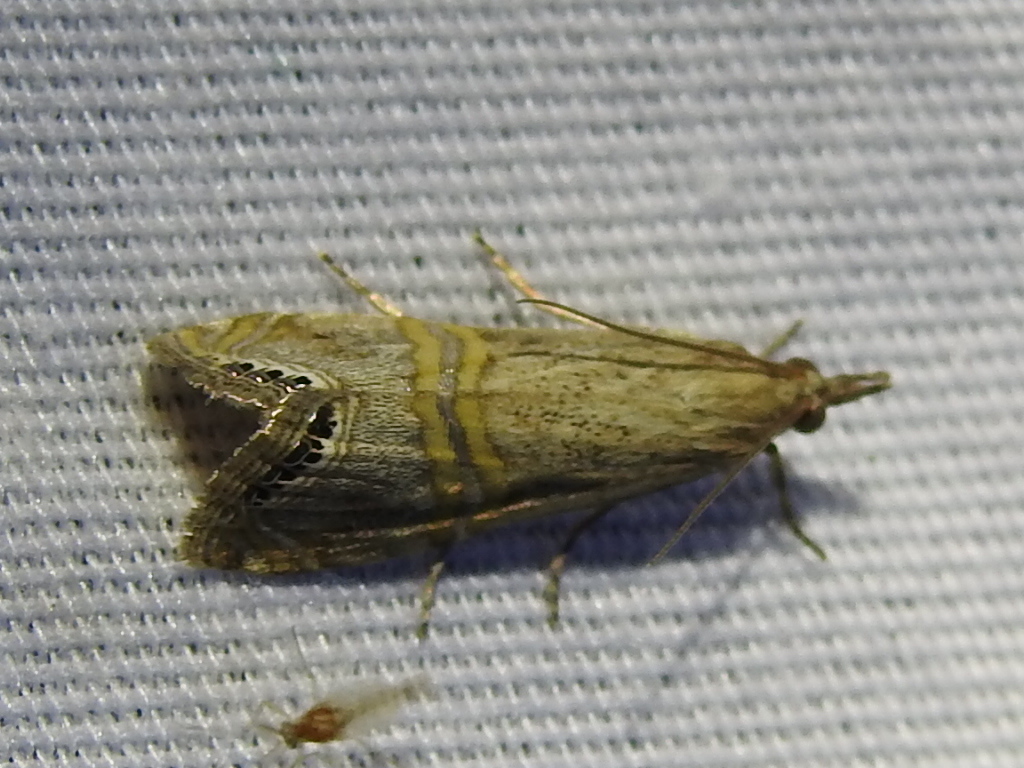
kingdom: Animalia
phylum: Arthropoda
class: Insecta
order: Lepidoptera
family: Crambidae
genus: Euchromius
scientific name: Euchromius ocellea
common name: Necklace veneer moth
